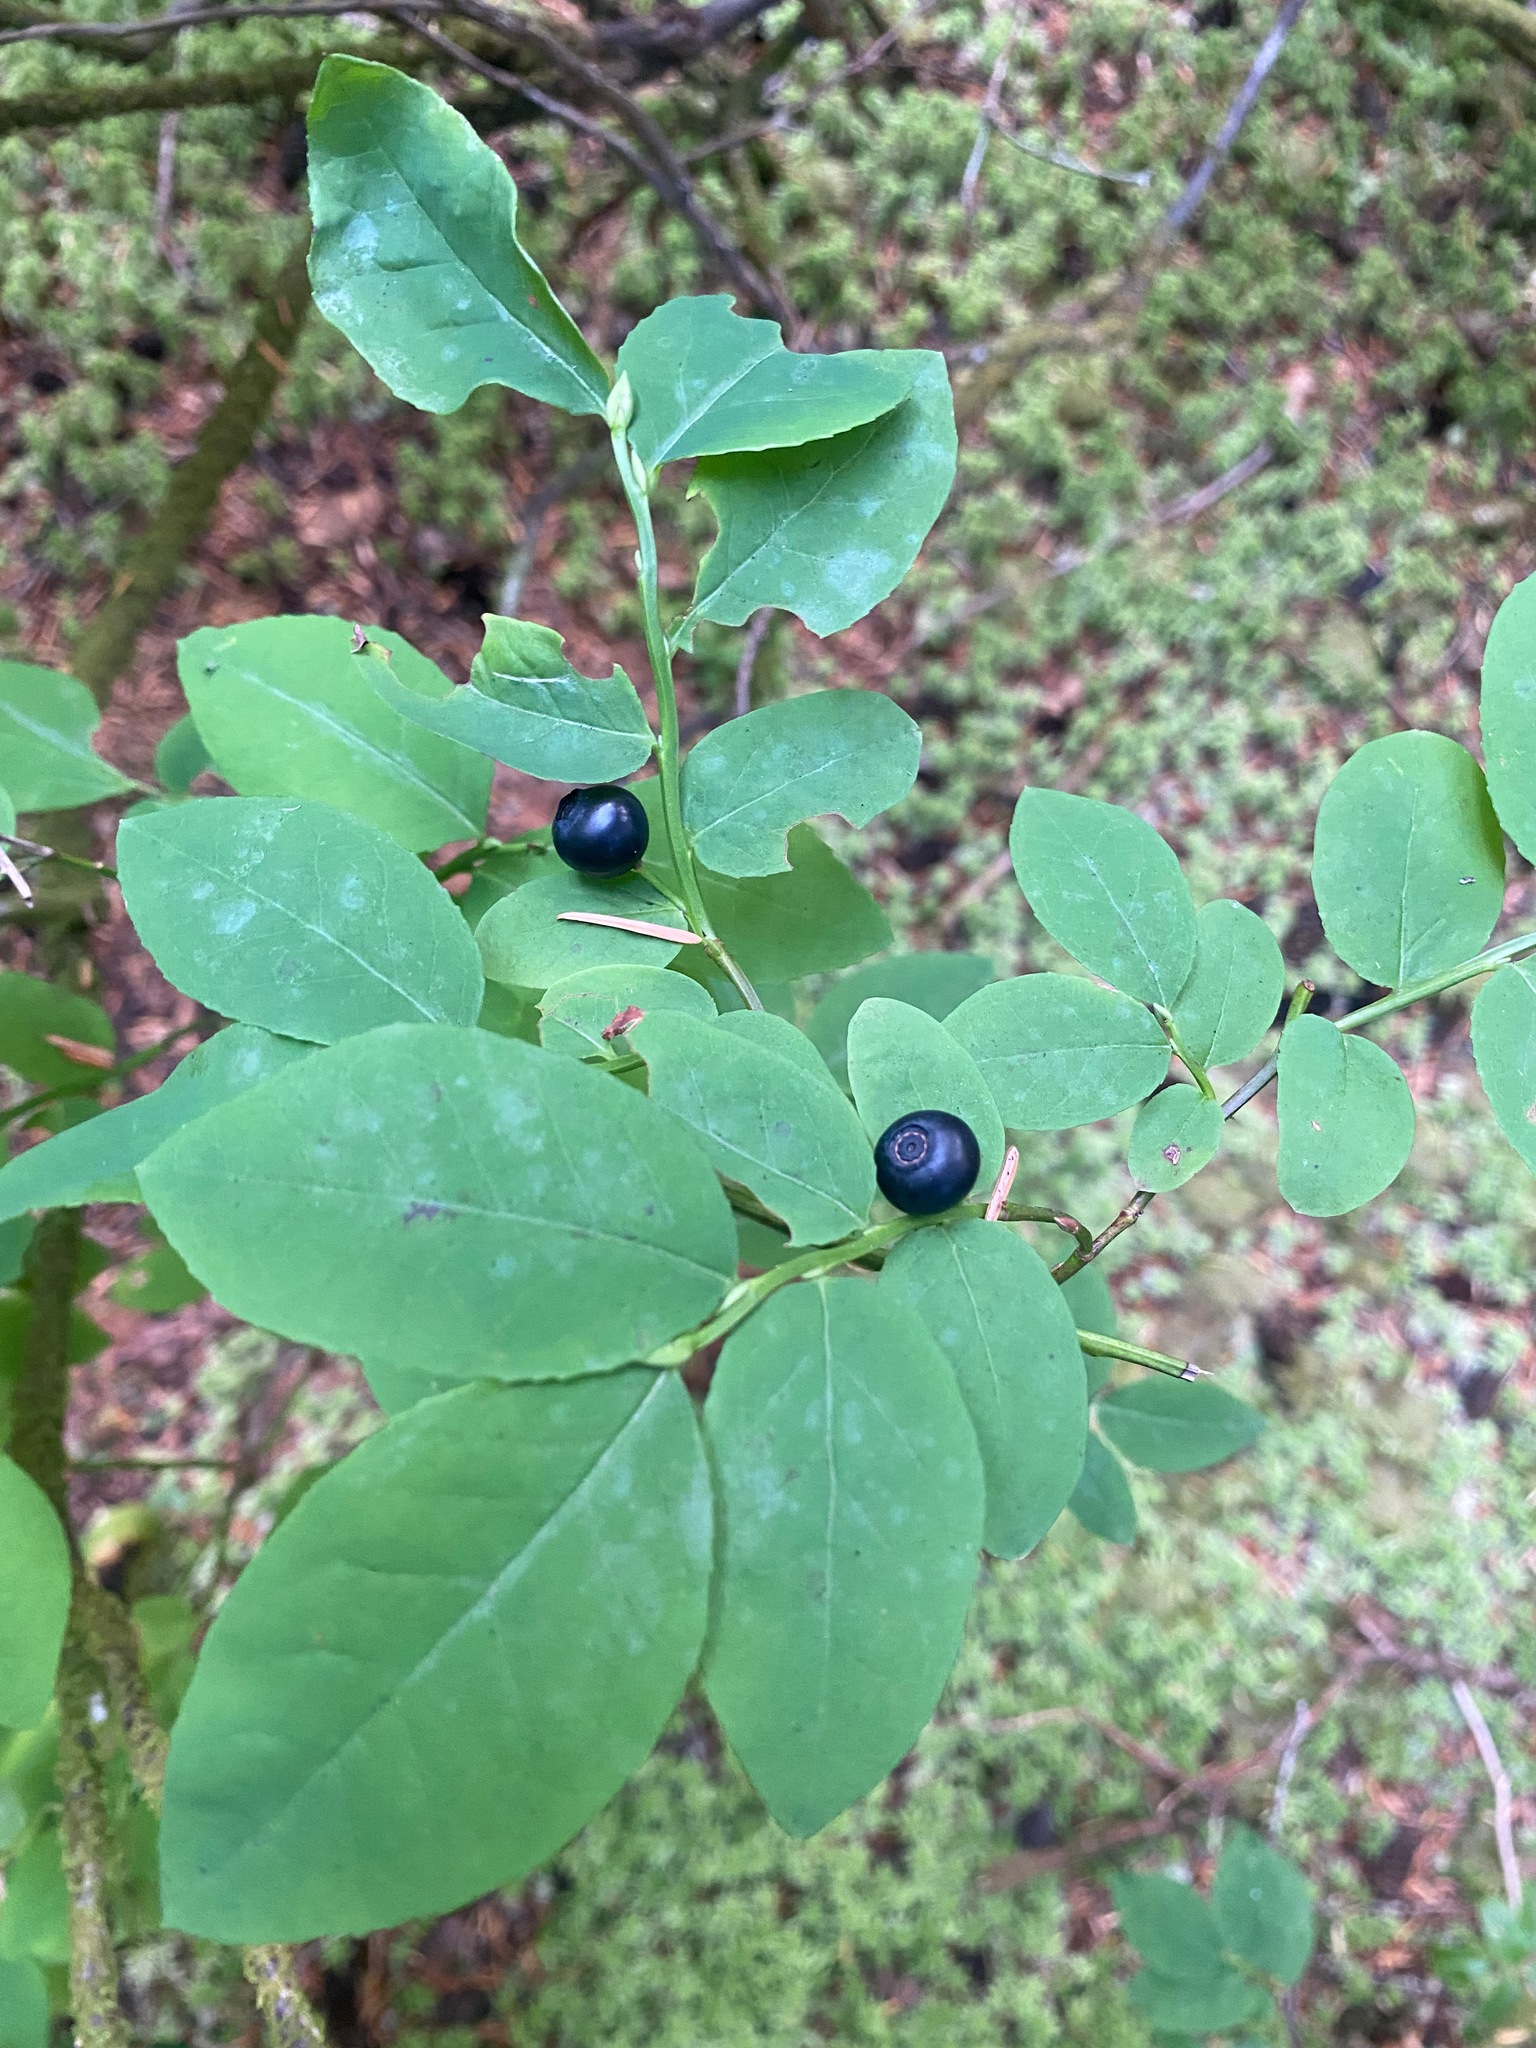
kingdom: Plantae
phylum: Tracheophyta
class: Magnoliopsida
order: Ericales
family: Ericaceae
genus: Vaccinium
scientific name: Vaccinium ovalifolium
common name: Early blueberry
